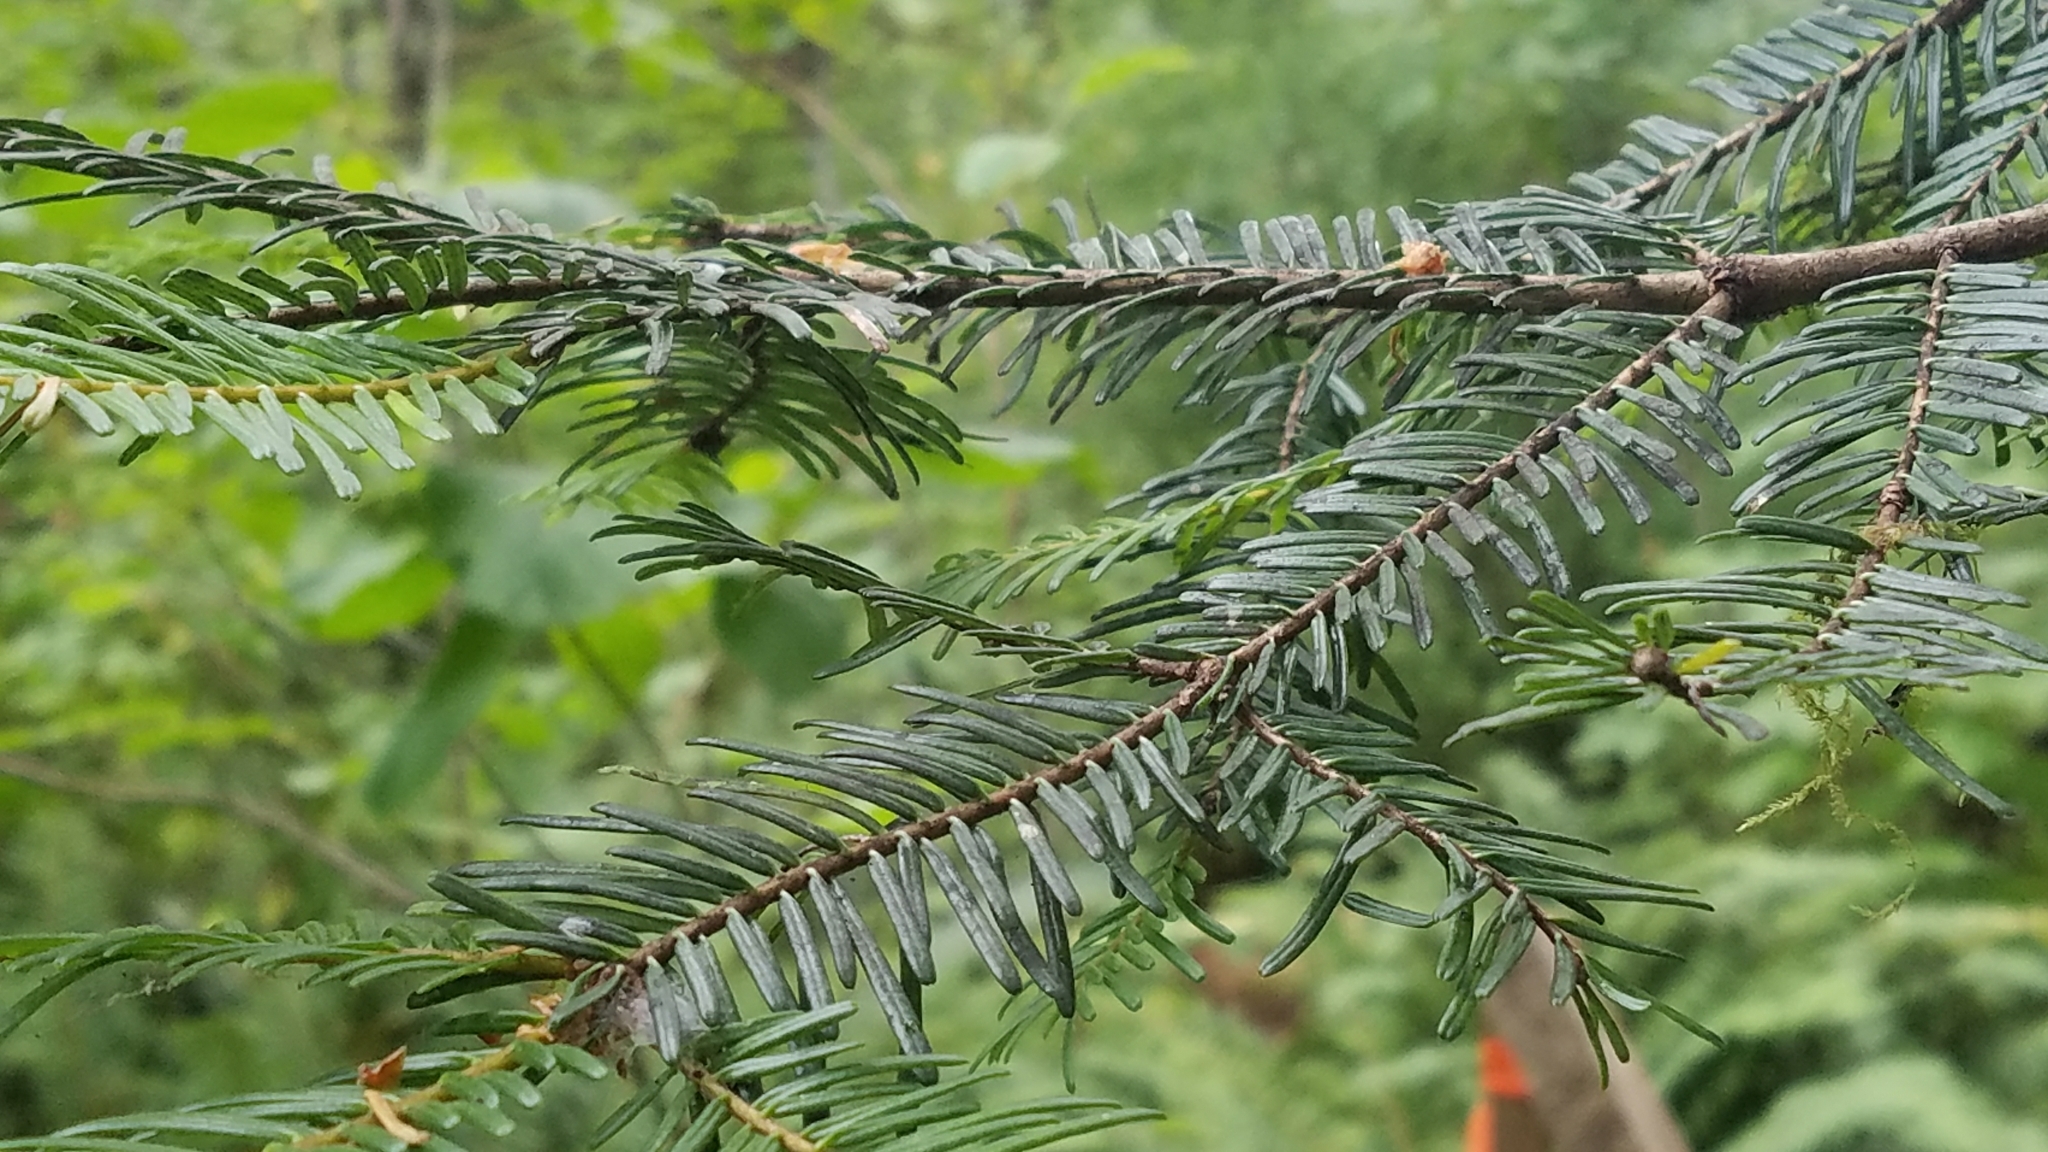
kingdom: Plantae
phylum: Tracheophyta
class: Pinopsida
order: Pinales
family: Pinaceae
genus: Abies
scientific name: Abies grandis
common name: Giant fir
